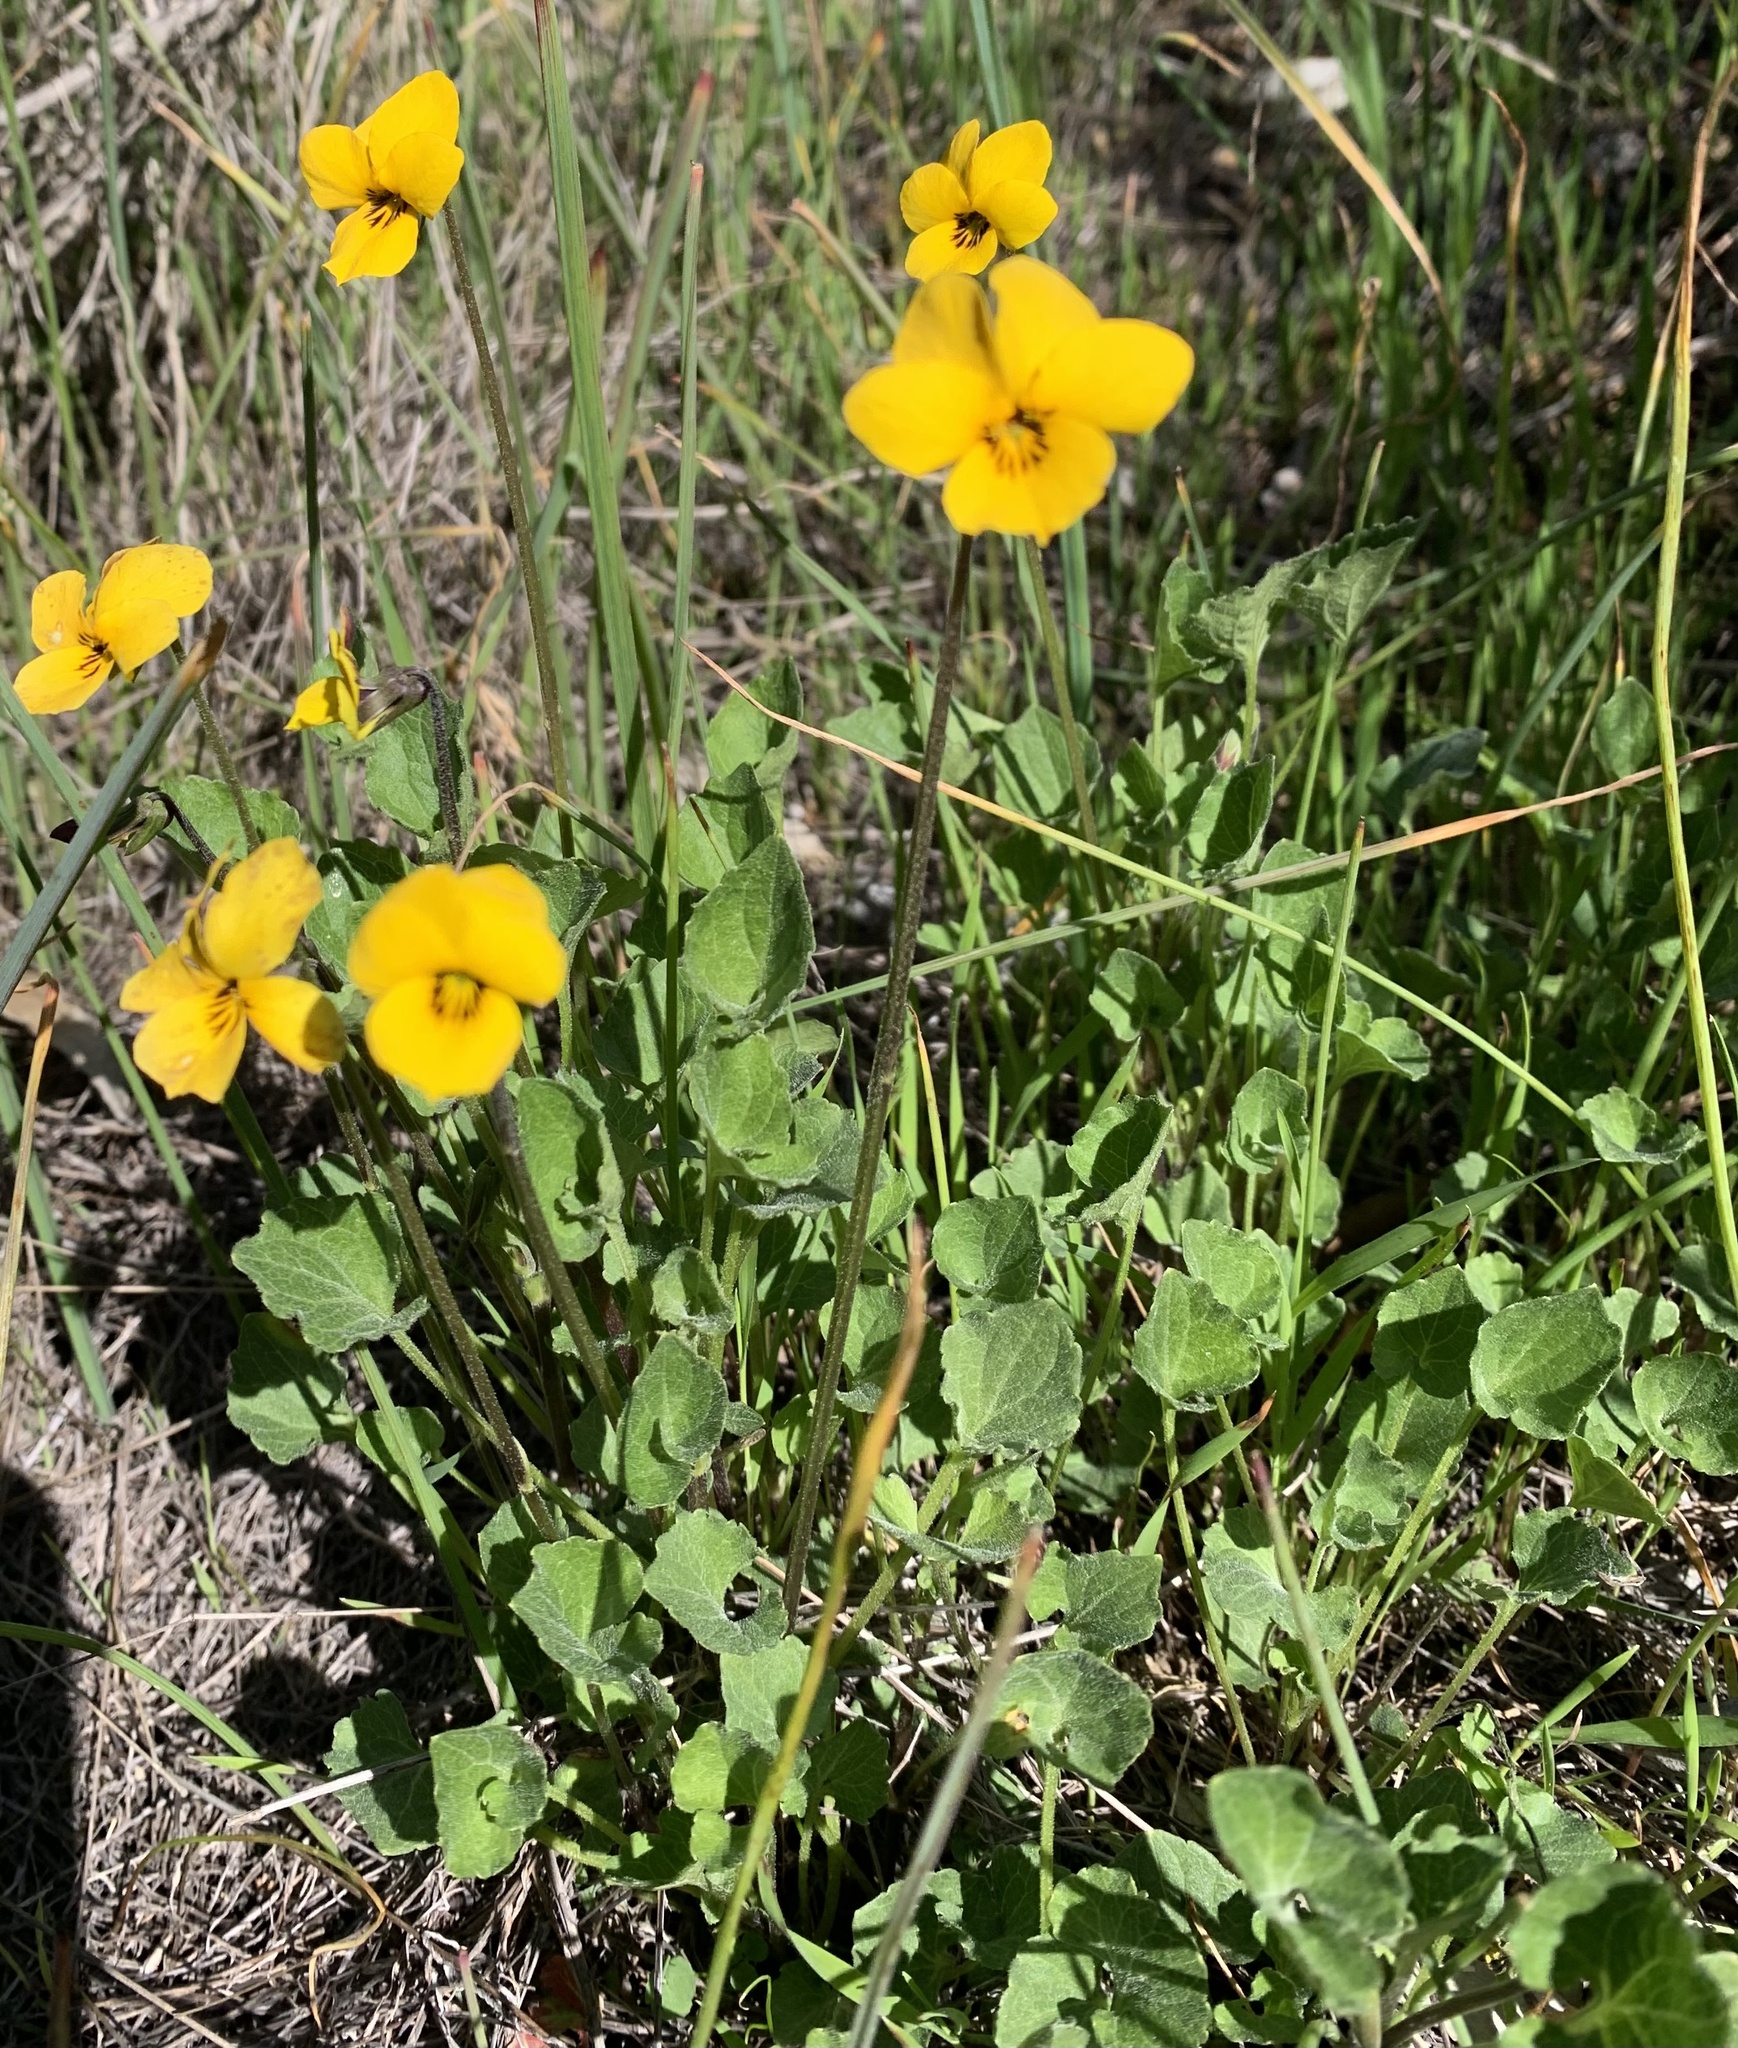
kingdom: Plantae
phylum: Tracheophyta
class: Magnoliopsida
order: Malpighiales
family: Violaceae
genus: Viola
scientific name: Viola pedunculata
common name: California golden violet
